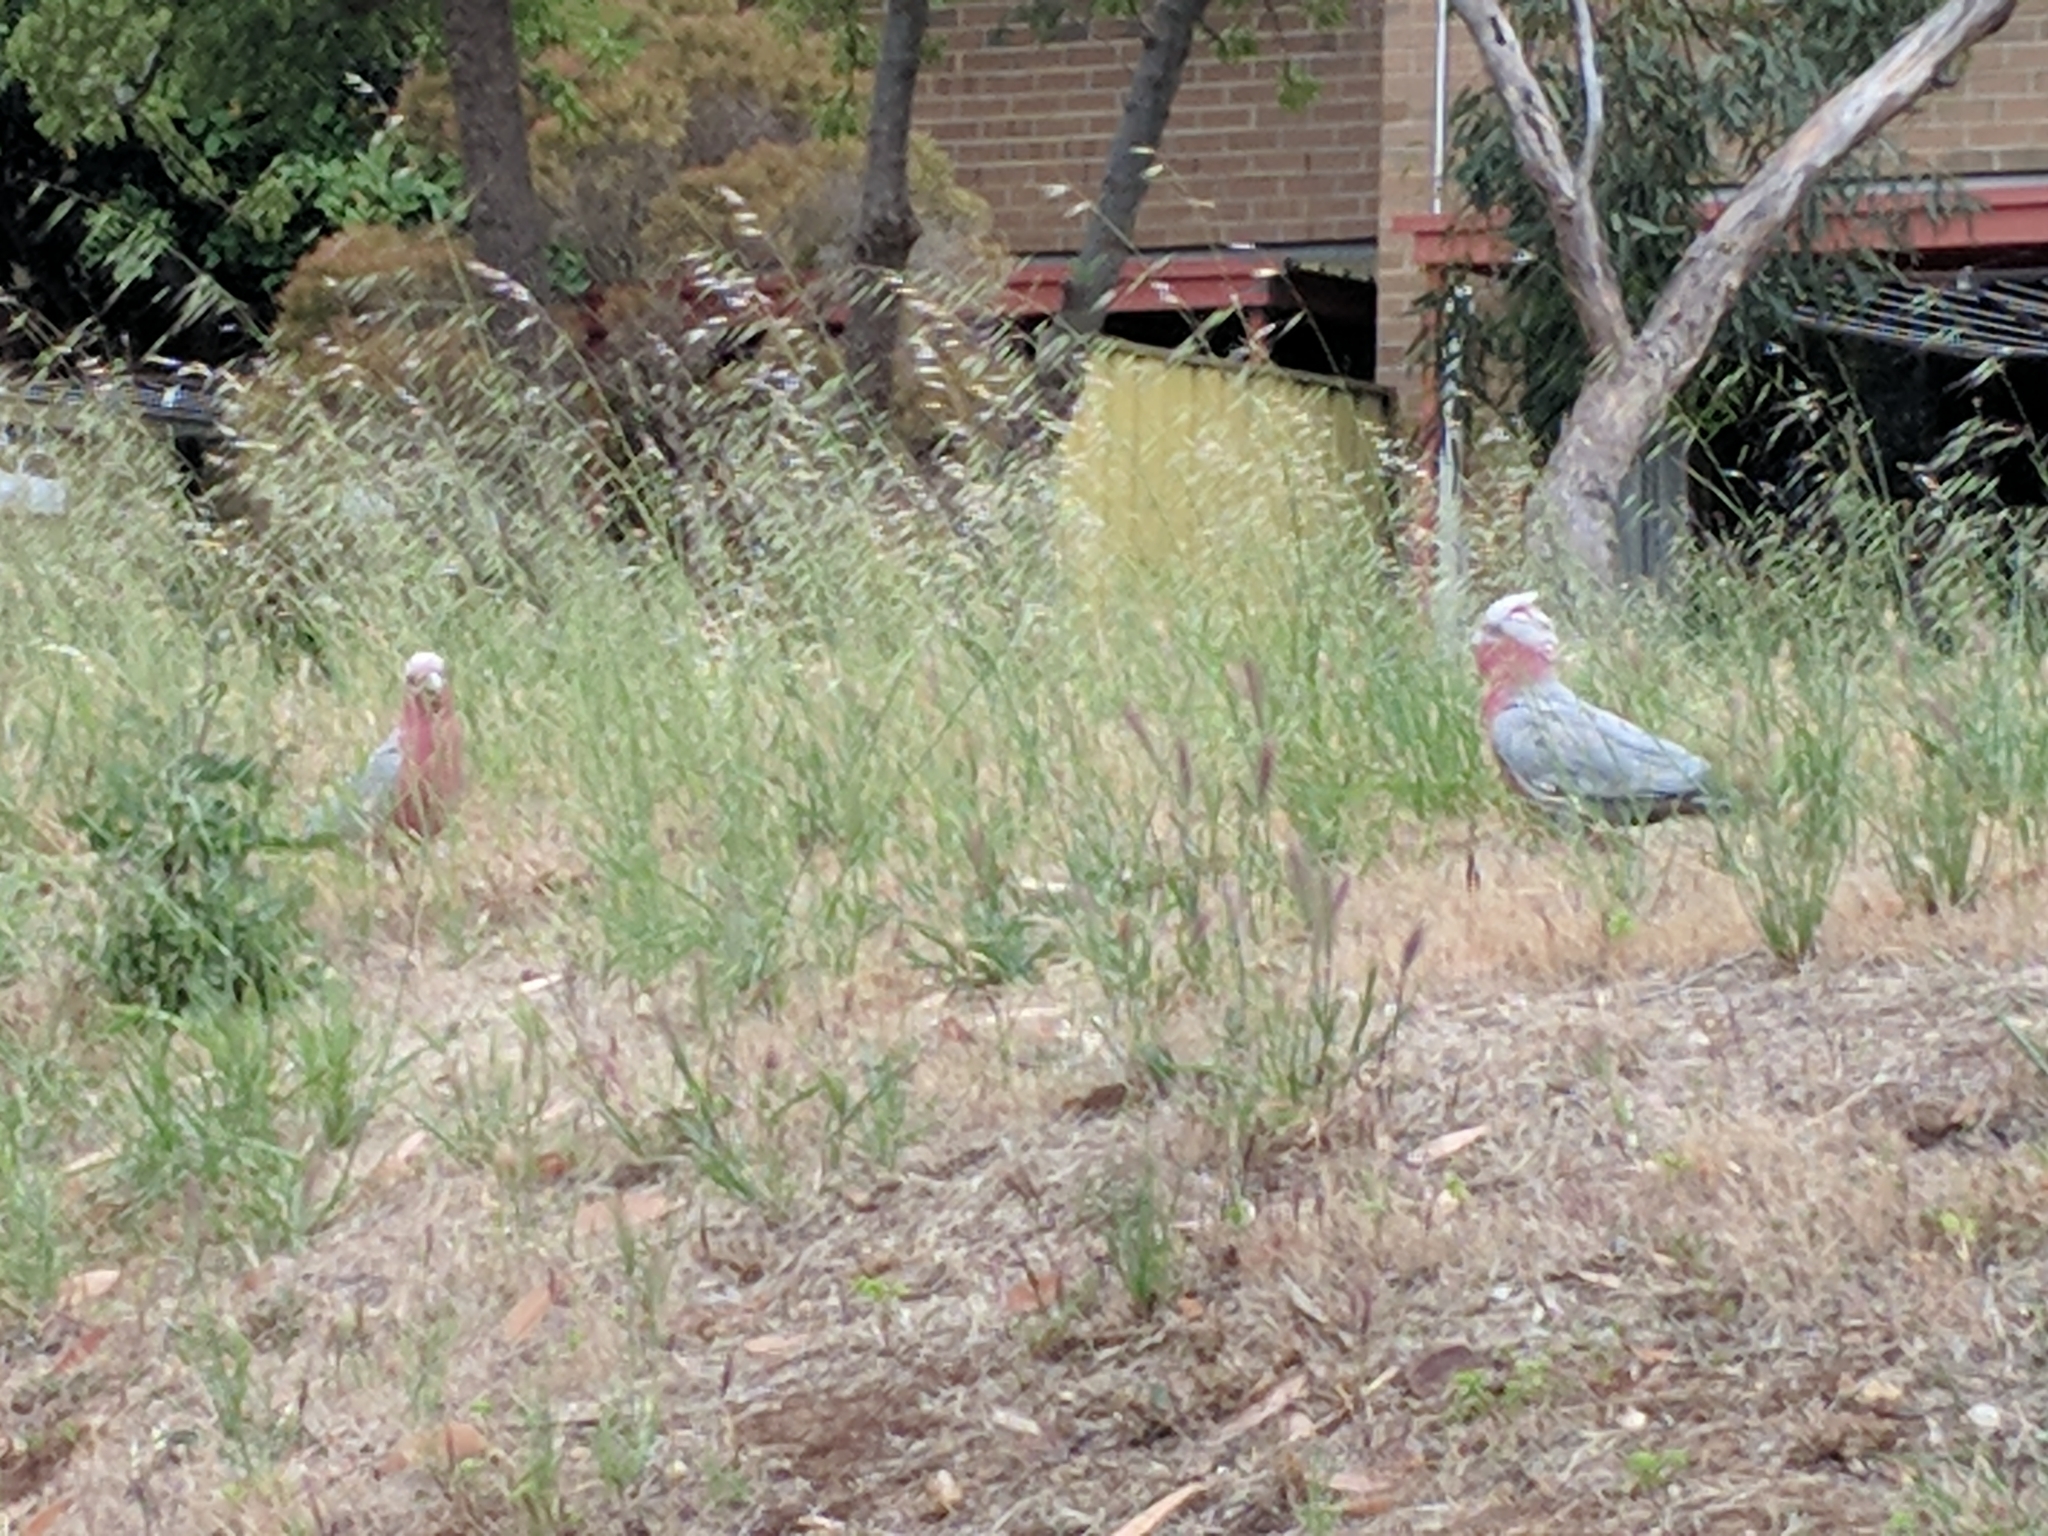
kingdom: Animalia
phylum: Chordata
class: Aves
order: Psittaciformes
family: Psittacidae
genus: Eolophus
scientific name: Eolophus roseicapilla
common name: Galah
